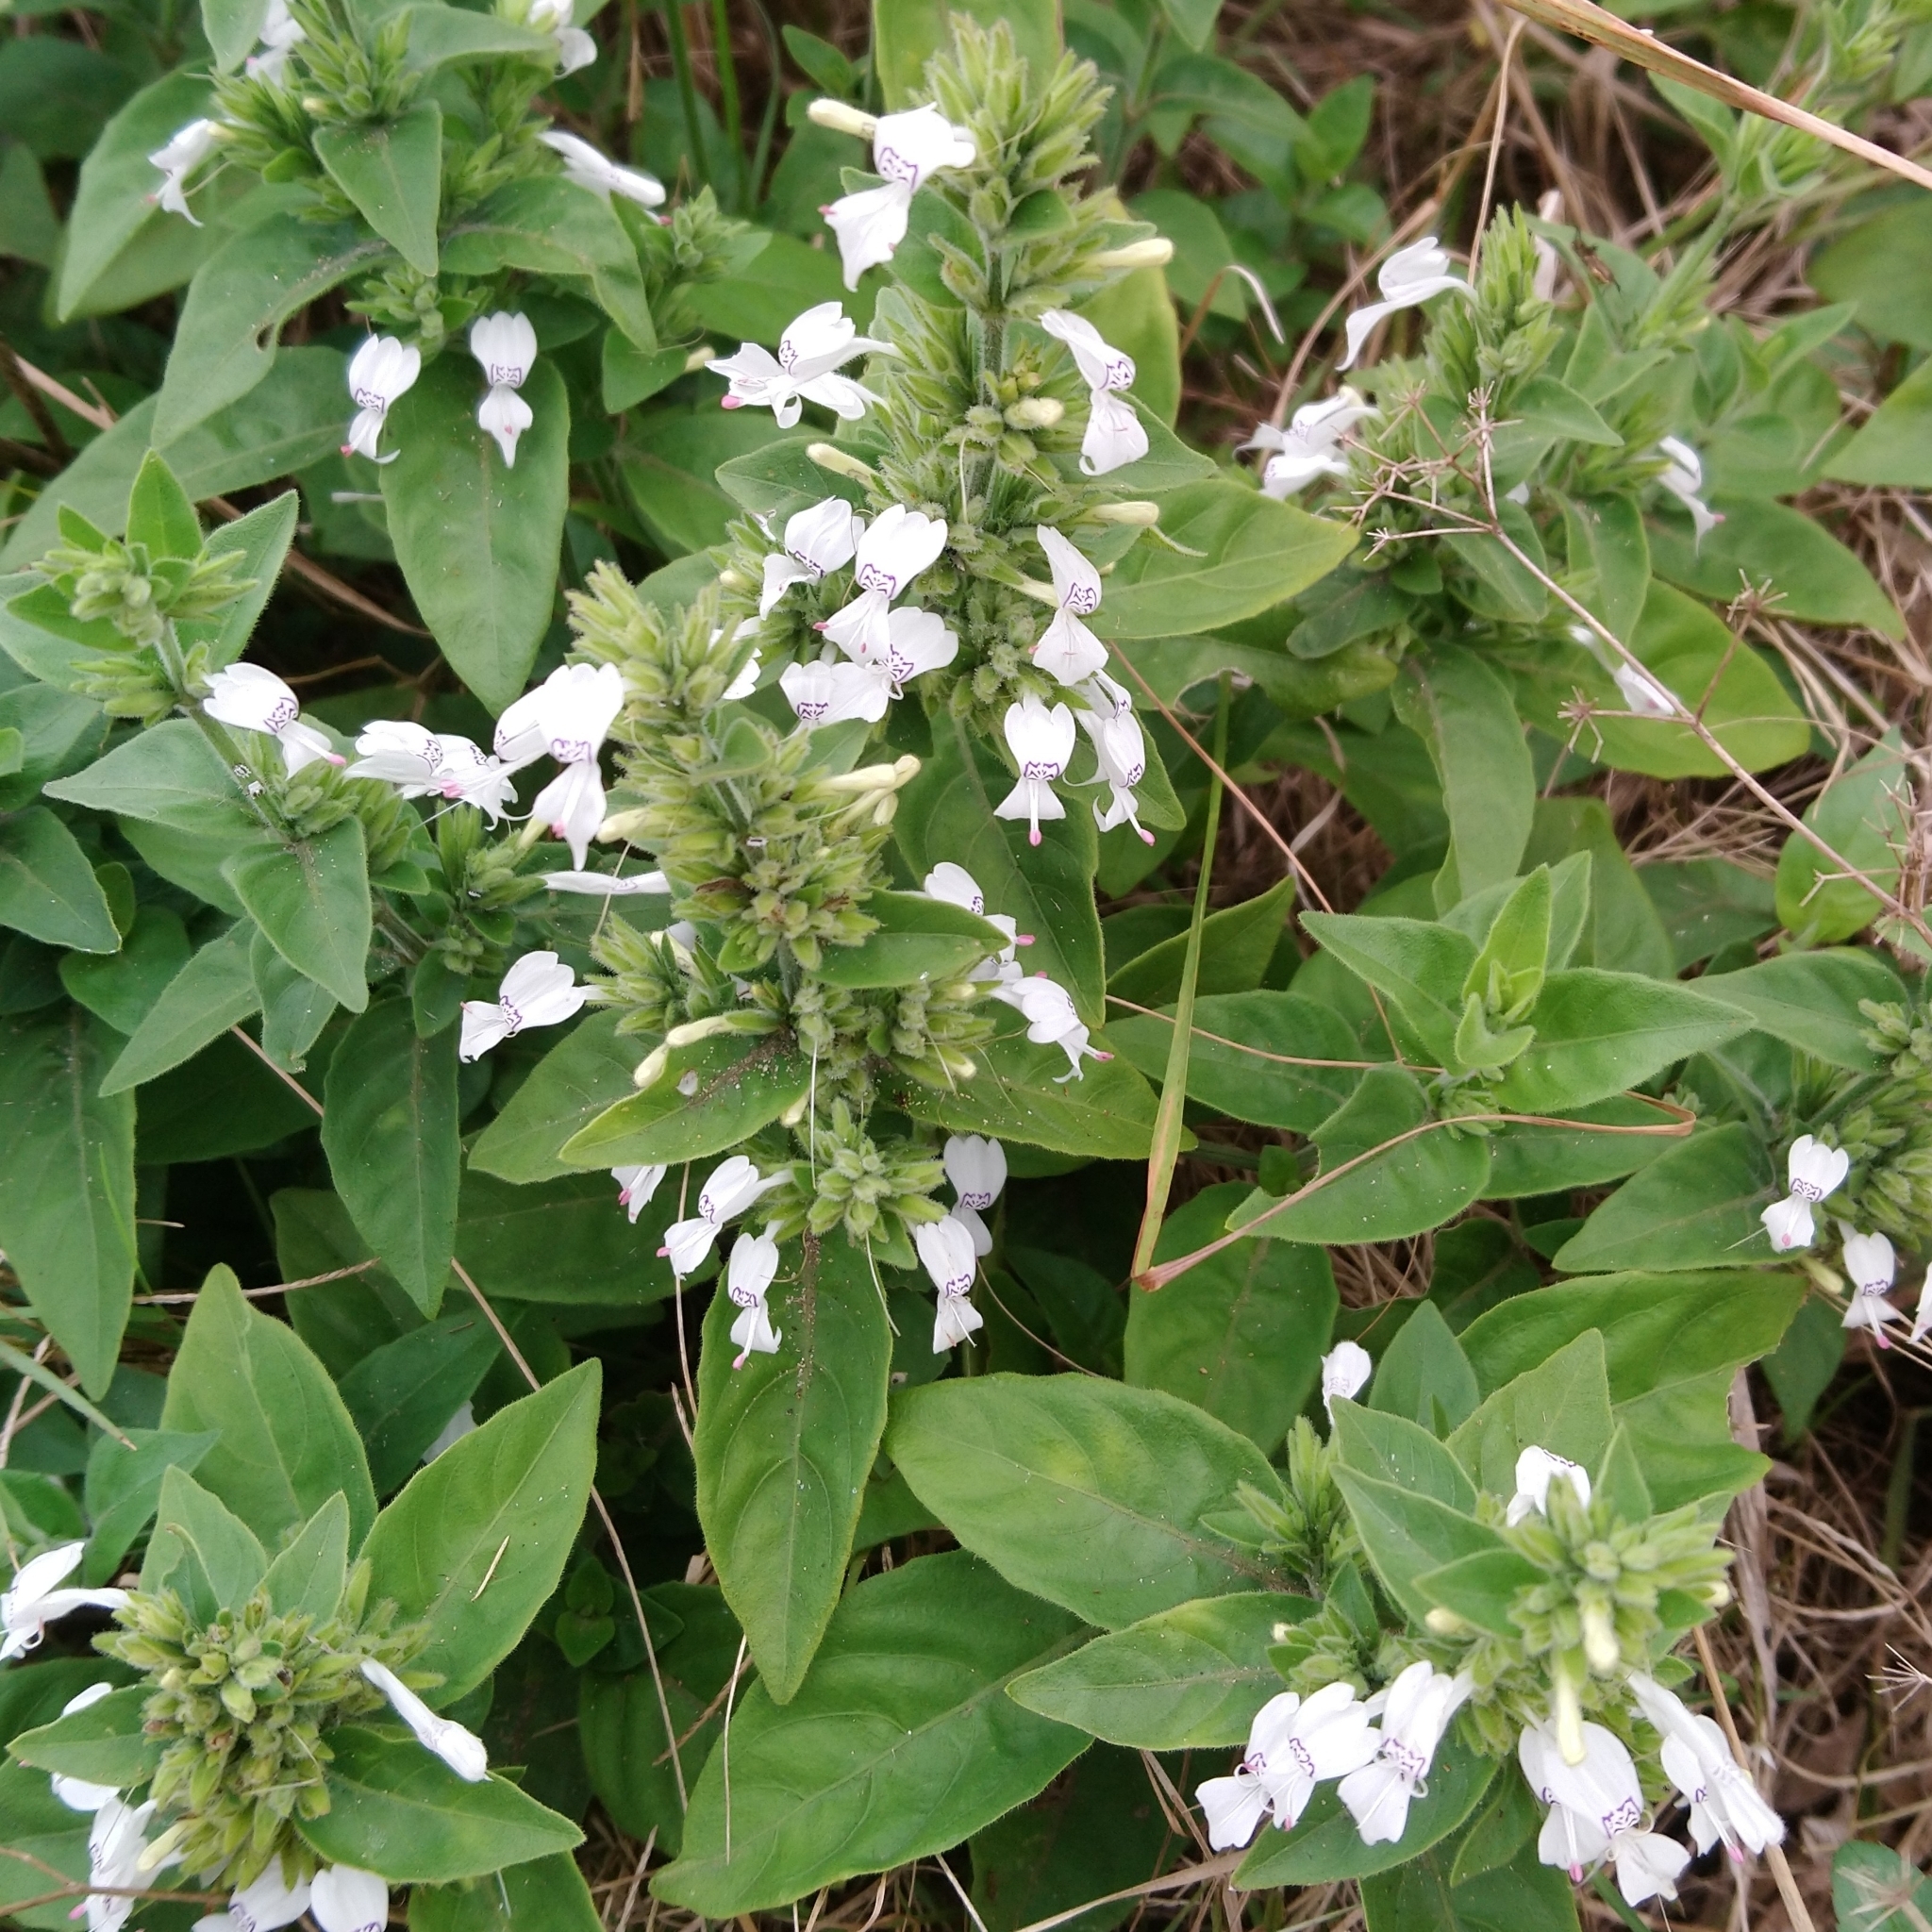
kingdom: Plantae
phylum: Tracheophyta
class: Magnoliopsida
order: Lamiales
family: Acanthaceae
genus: Hypoestes
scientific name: Hypoestes forskaolii
